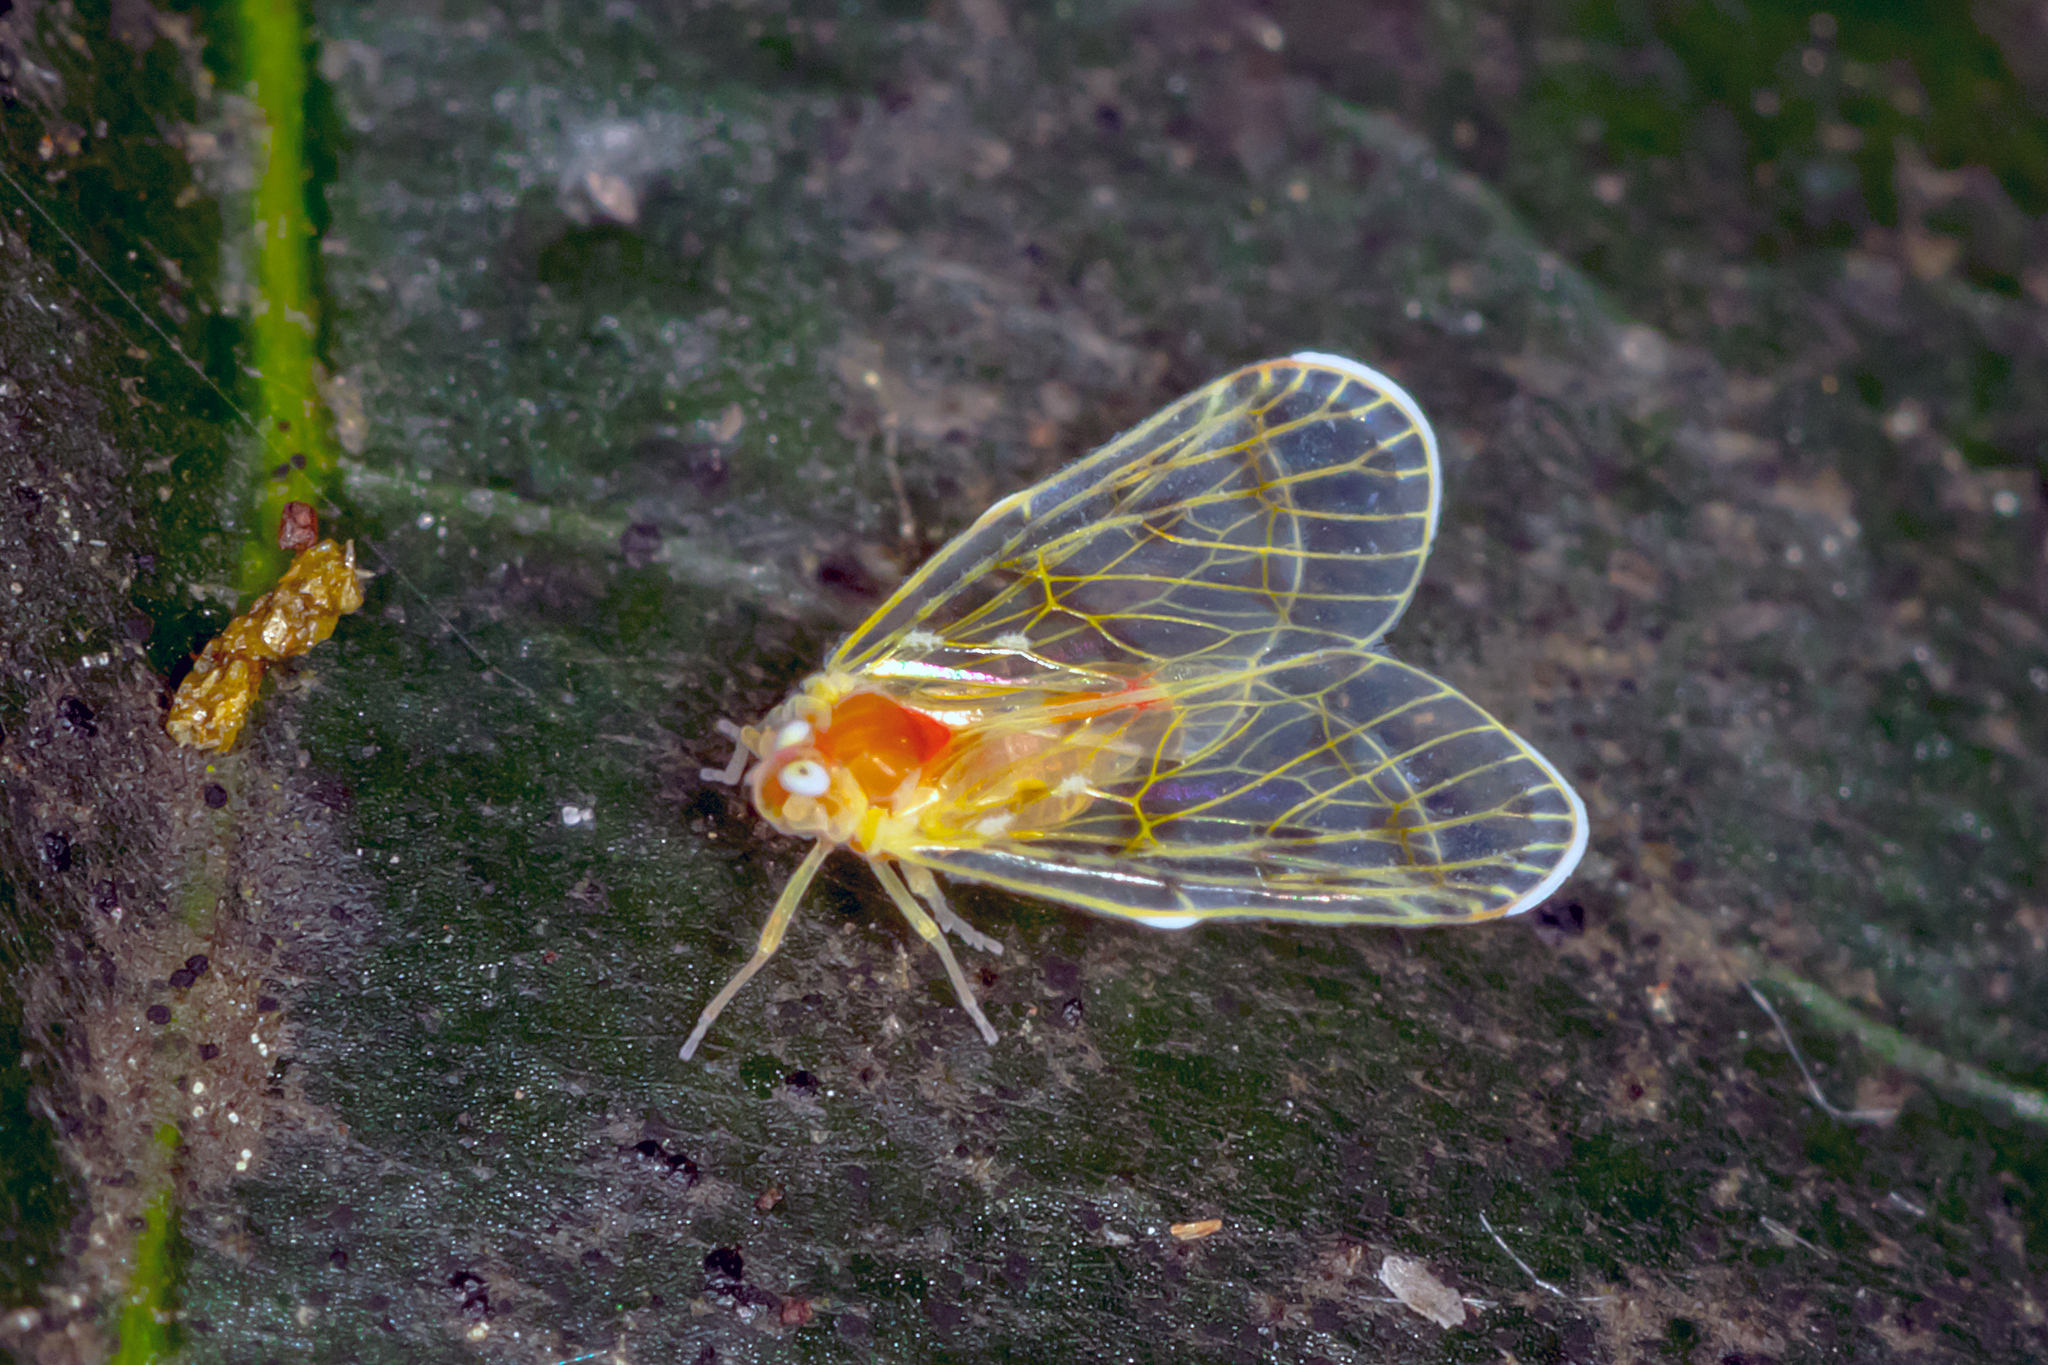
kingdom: Animalia
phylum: Arthropoda
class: Insecta
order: Hemiptera
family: Derbidae
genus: Saccharodite
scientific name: Saccharodite chrysonoe
